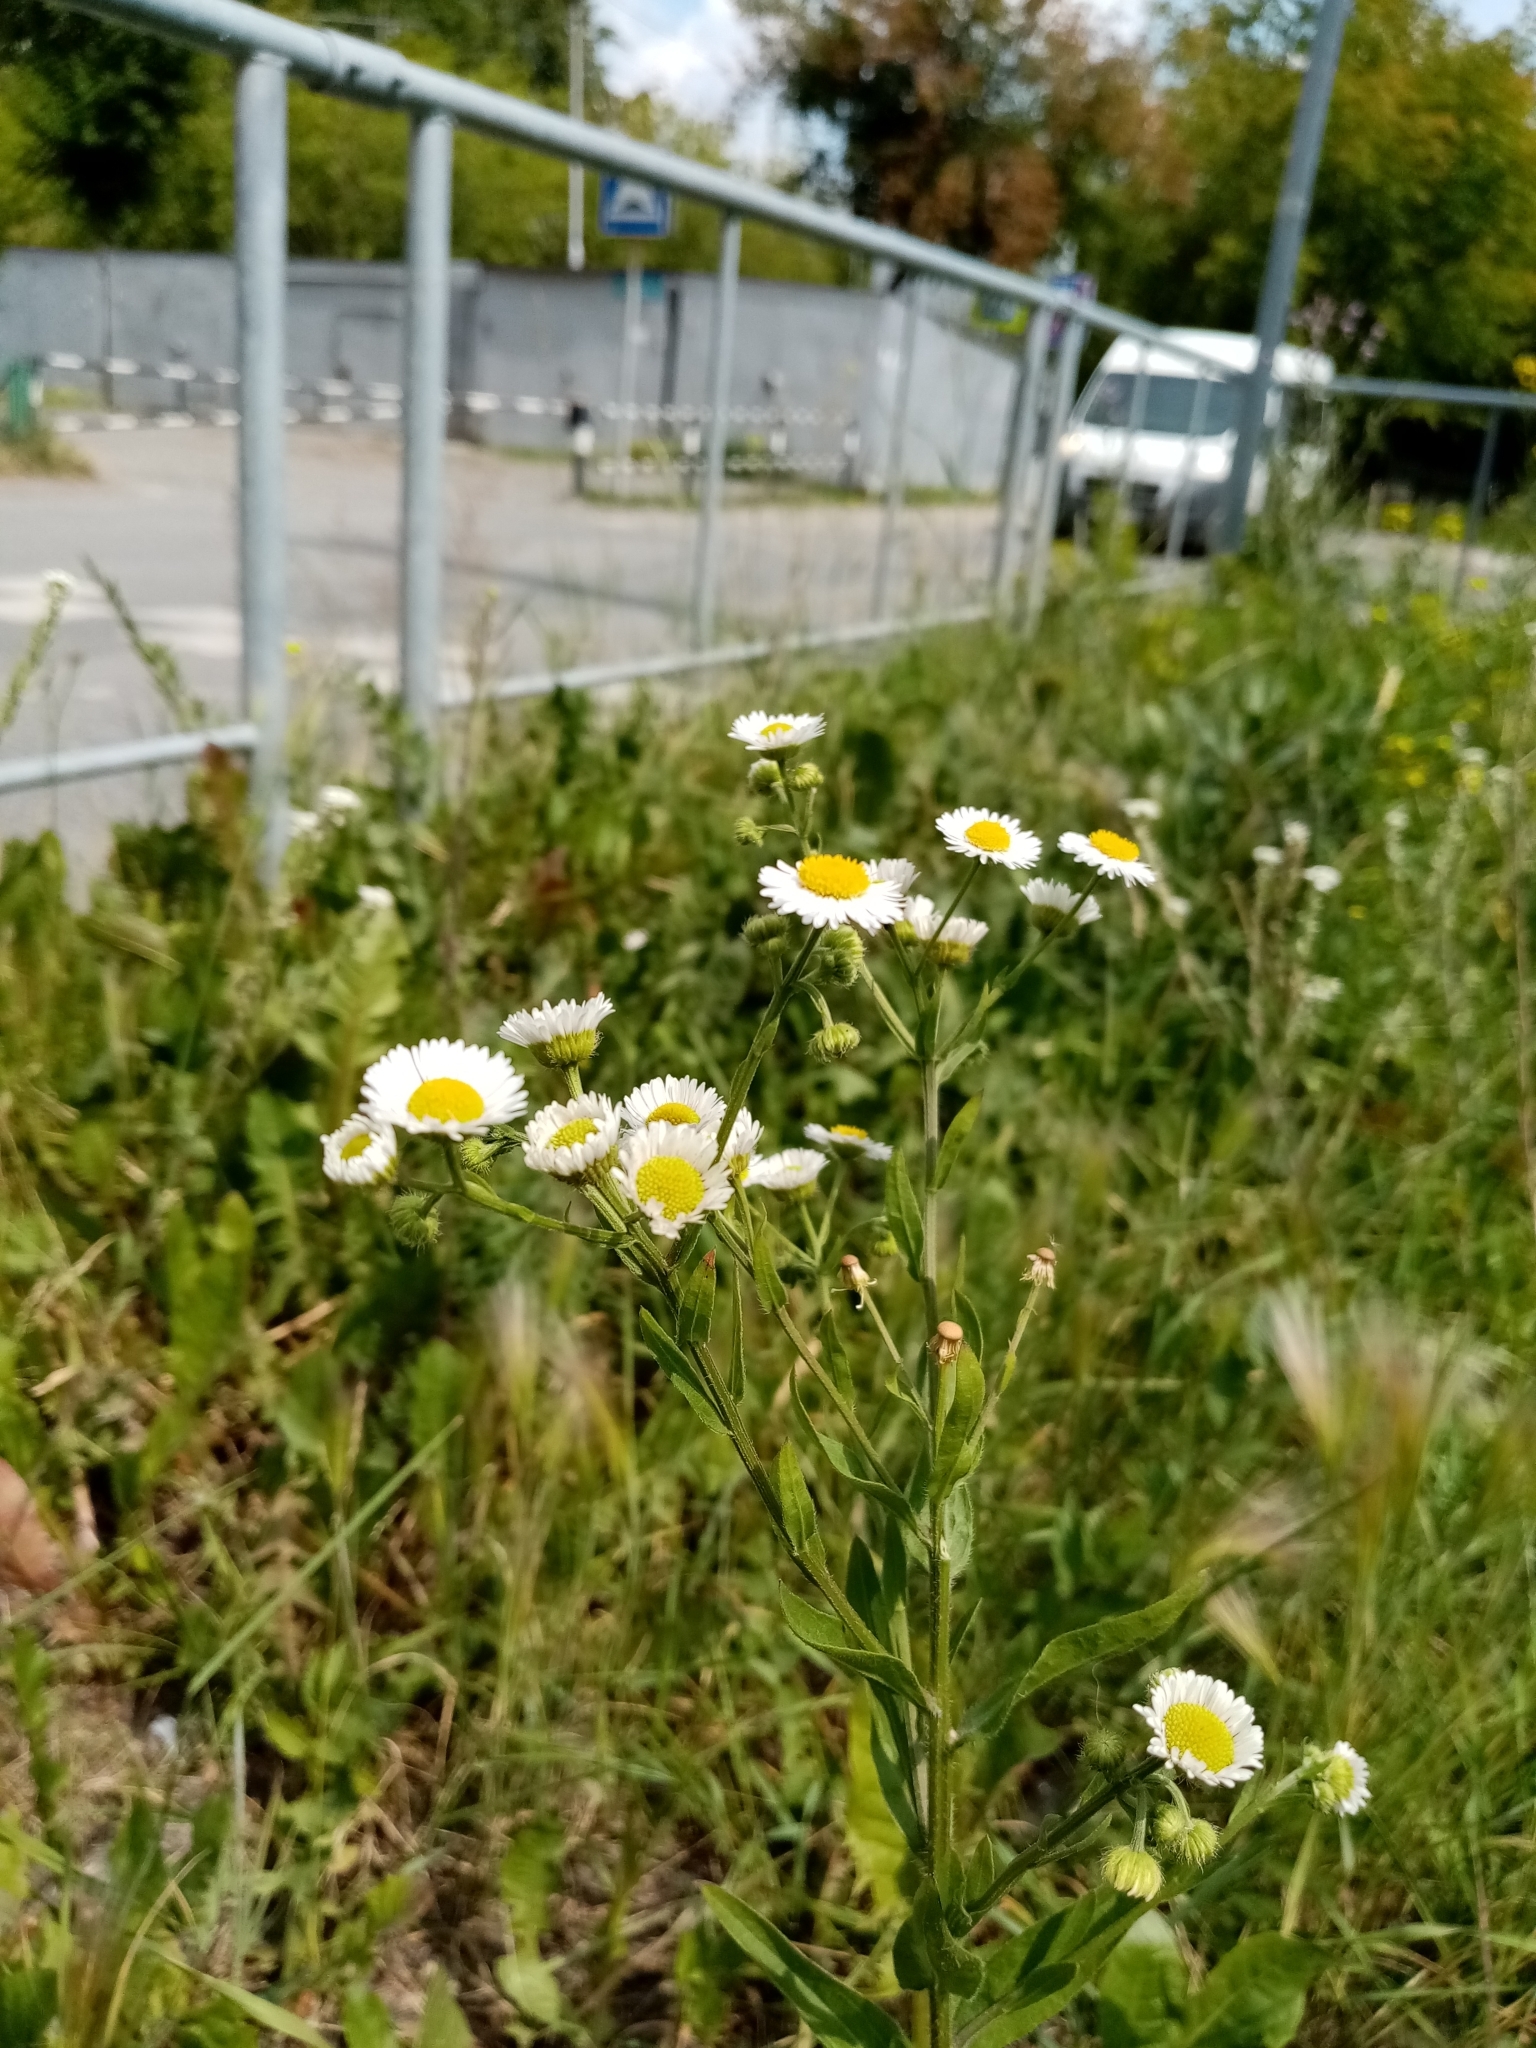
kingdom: Plantae
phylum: Tracheophyta
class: Magnoliopsida
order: Asterales
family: Asteraceae
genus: Erigeron
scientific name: Erigeron annuus
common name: Tall fleabane
